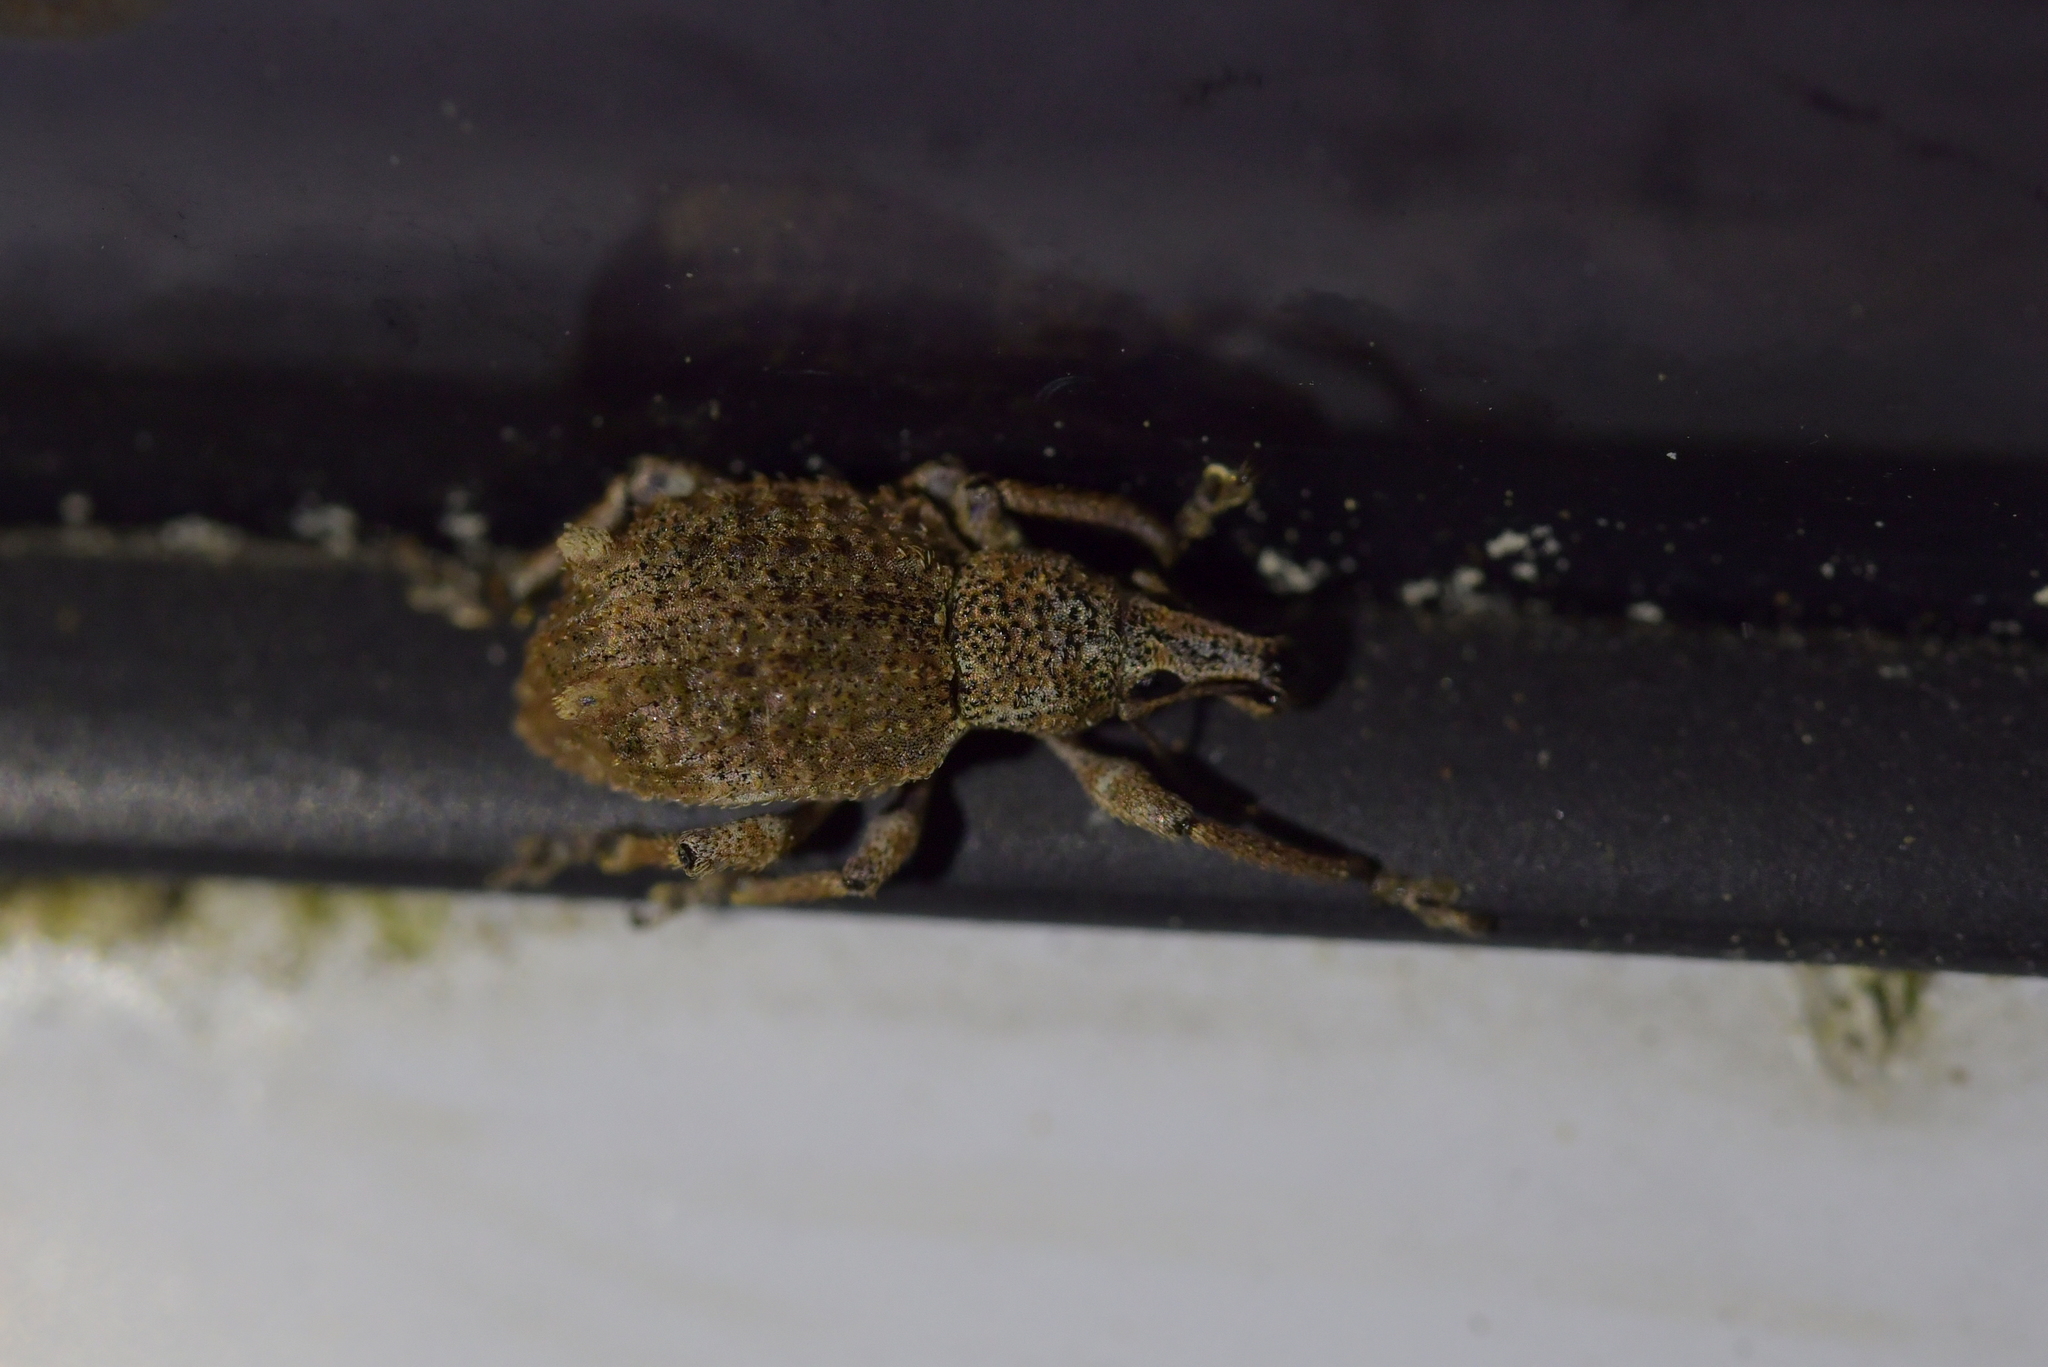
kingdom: Animalia
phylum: Arthropoda
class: Insecta
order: Coleoptera
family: Curculionidae
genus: Catoptes
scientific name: Catoptes binodis
